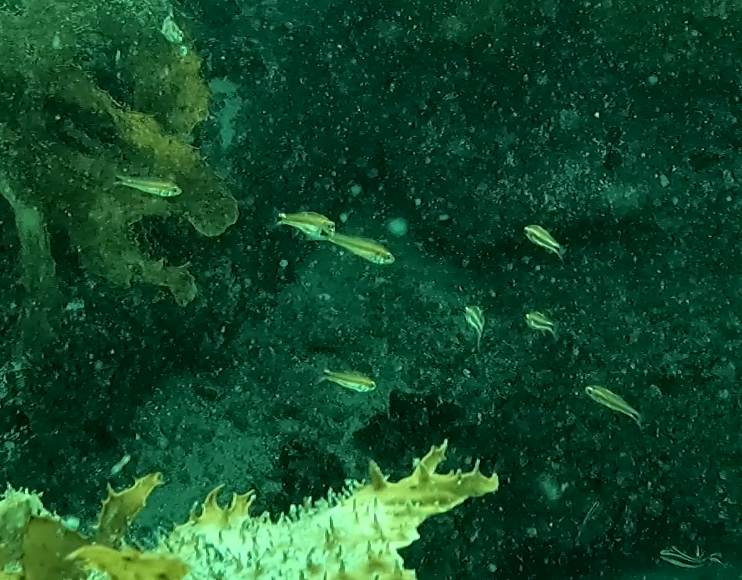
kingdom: Animalia
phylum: Chordata
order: Perciformes
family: Apogonidae
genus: Siphamia
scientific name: Siphamia cephalotes
